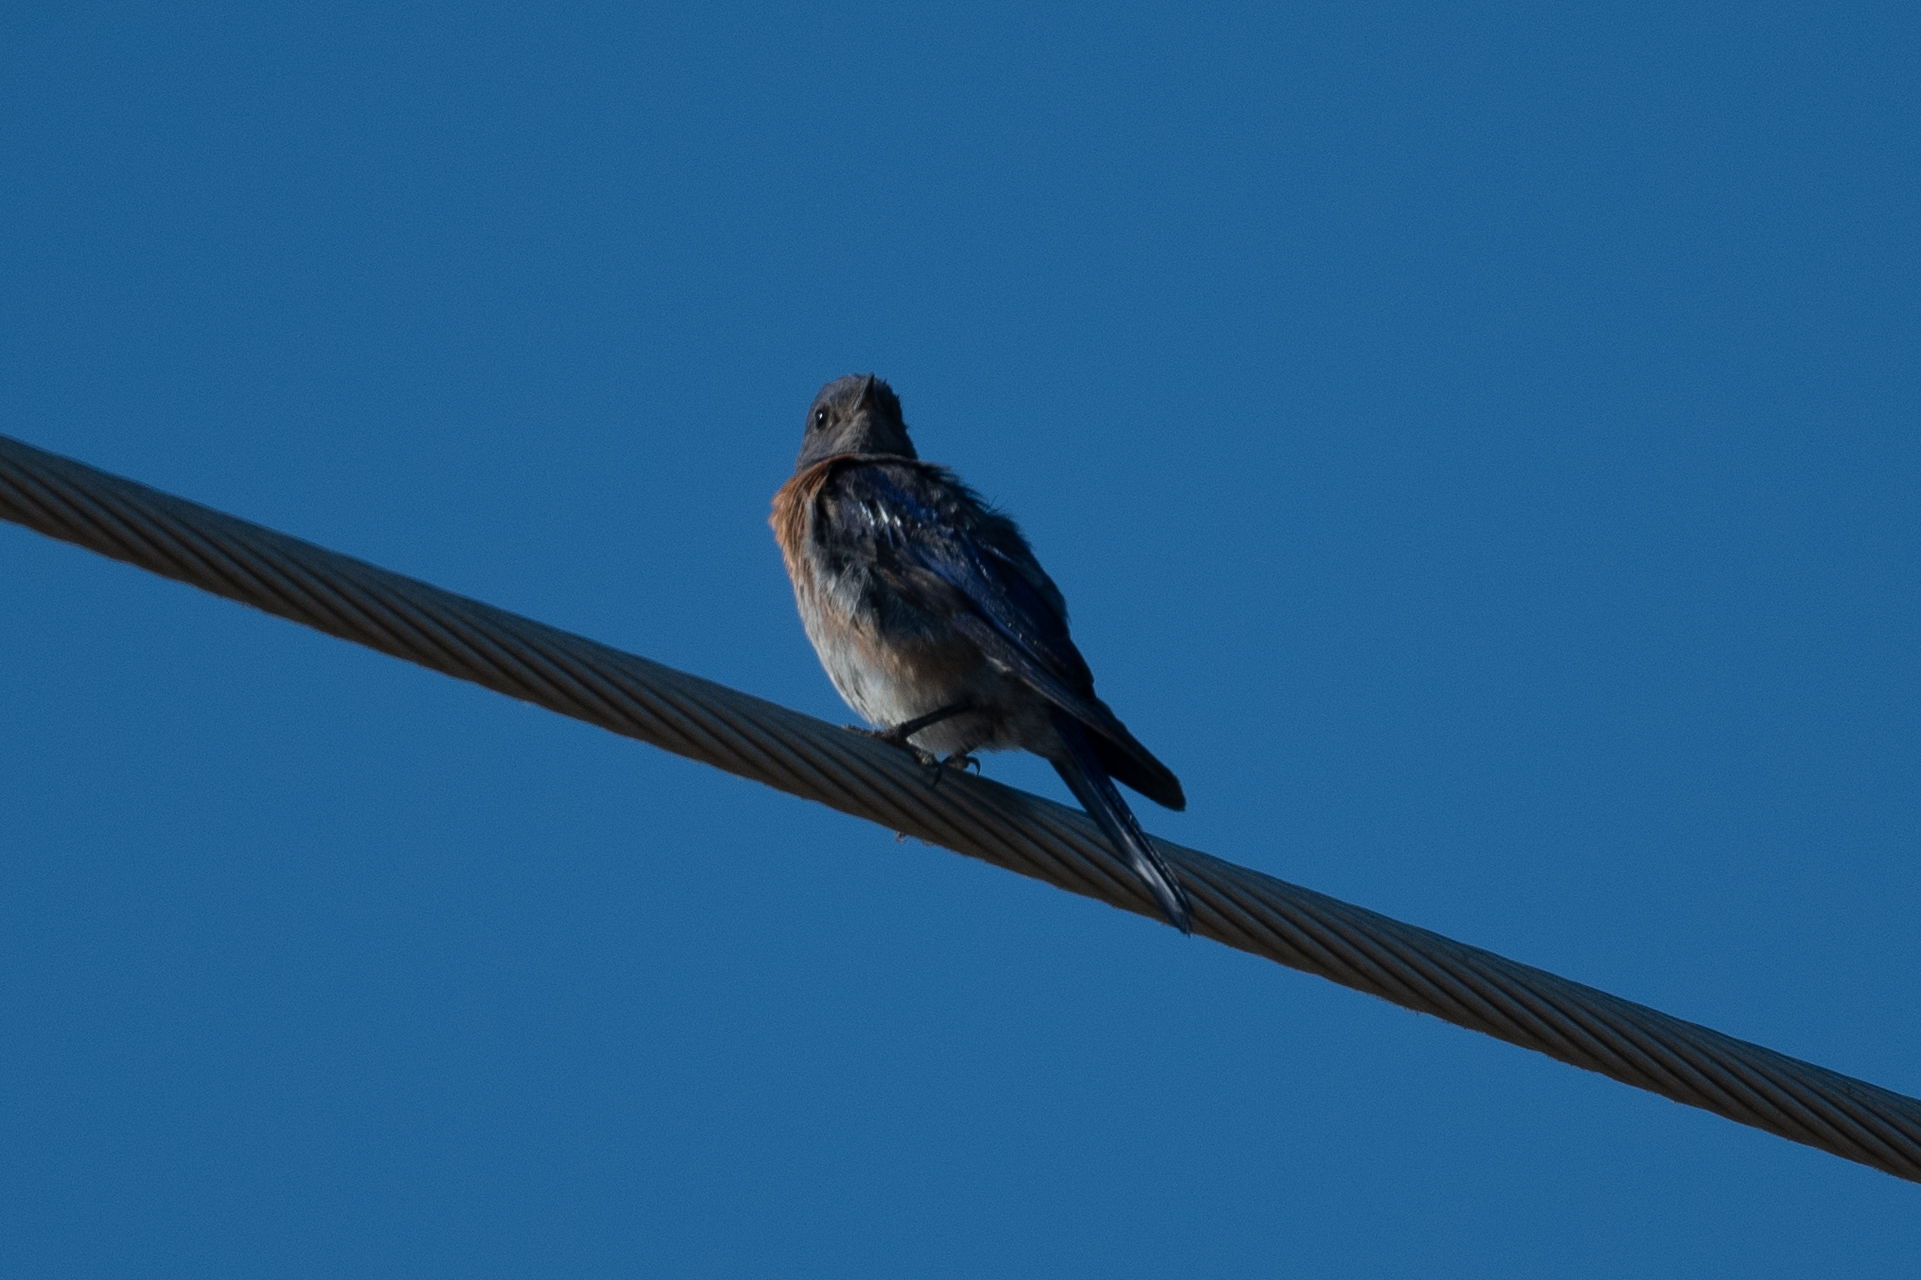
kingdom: Animalia
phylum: Chordata
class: Aves
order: Passeriformes
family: Turdidae
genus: Sialia
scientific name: Sialia mexicana
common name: Western bluebird
